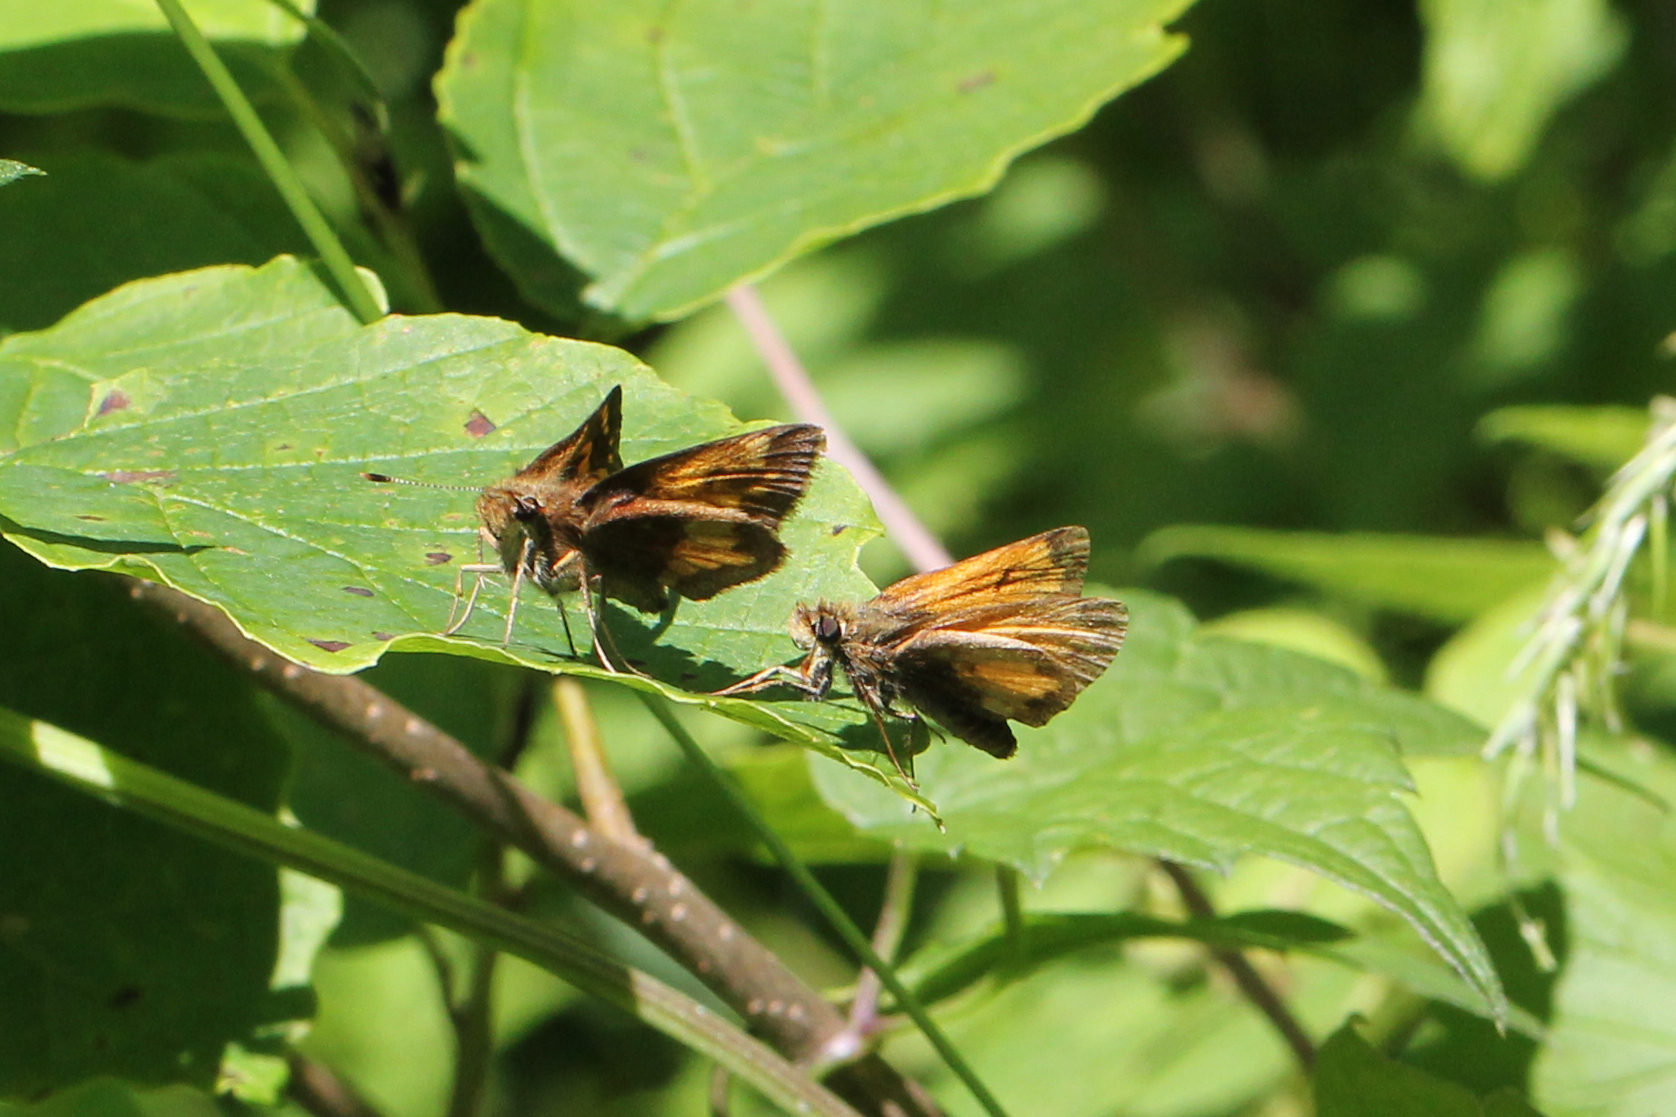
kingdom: Animalia
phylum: Arthropoda
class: Insecta
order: Lepidoptera
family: Hesperiidae
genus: Lon
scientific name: Lon hobomok
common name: Hobomok skipper
